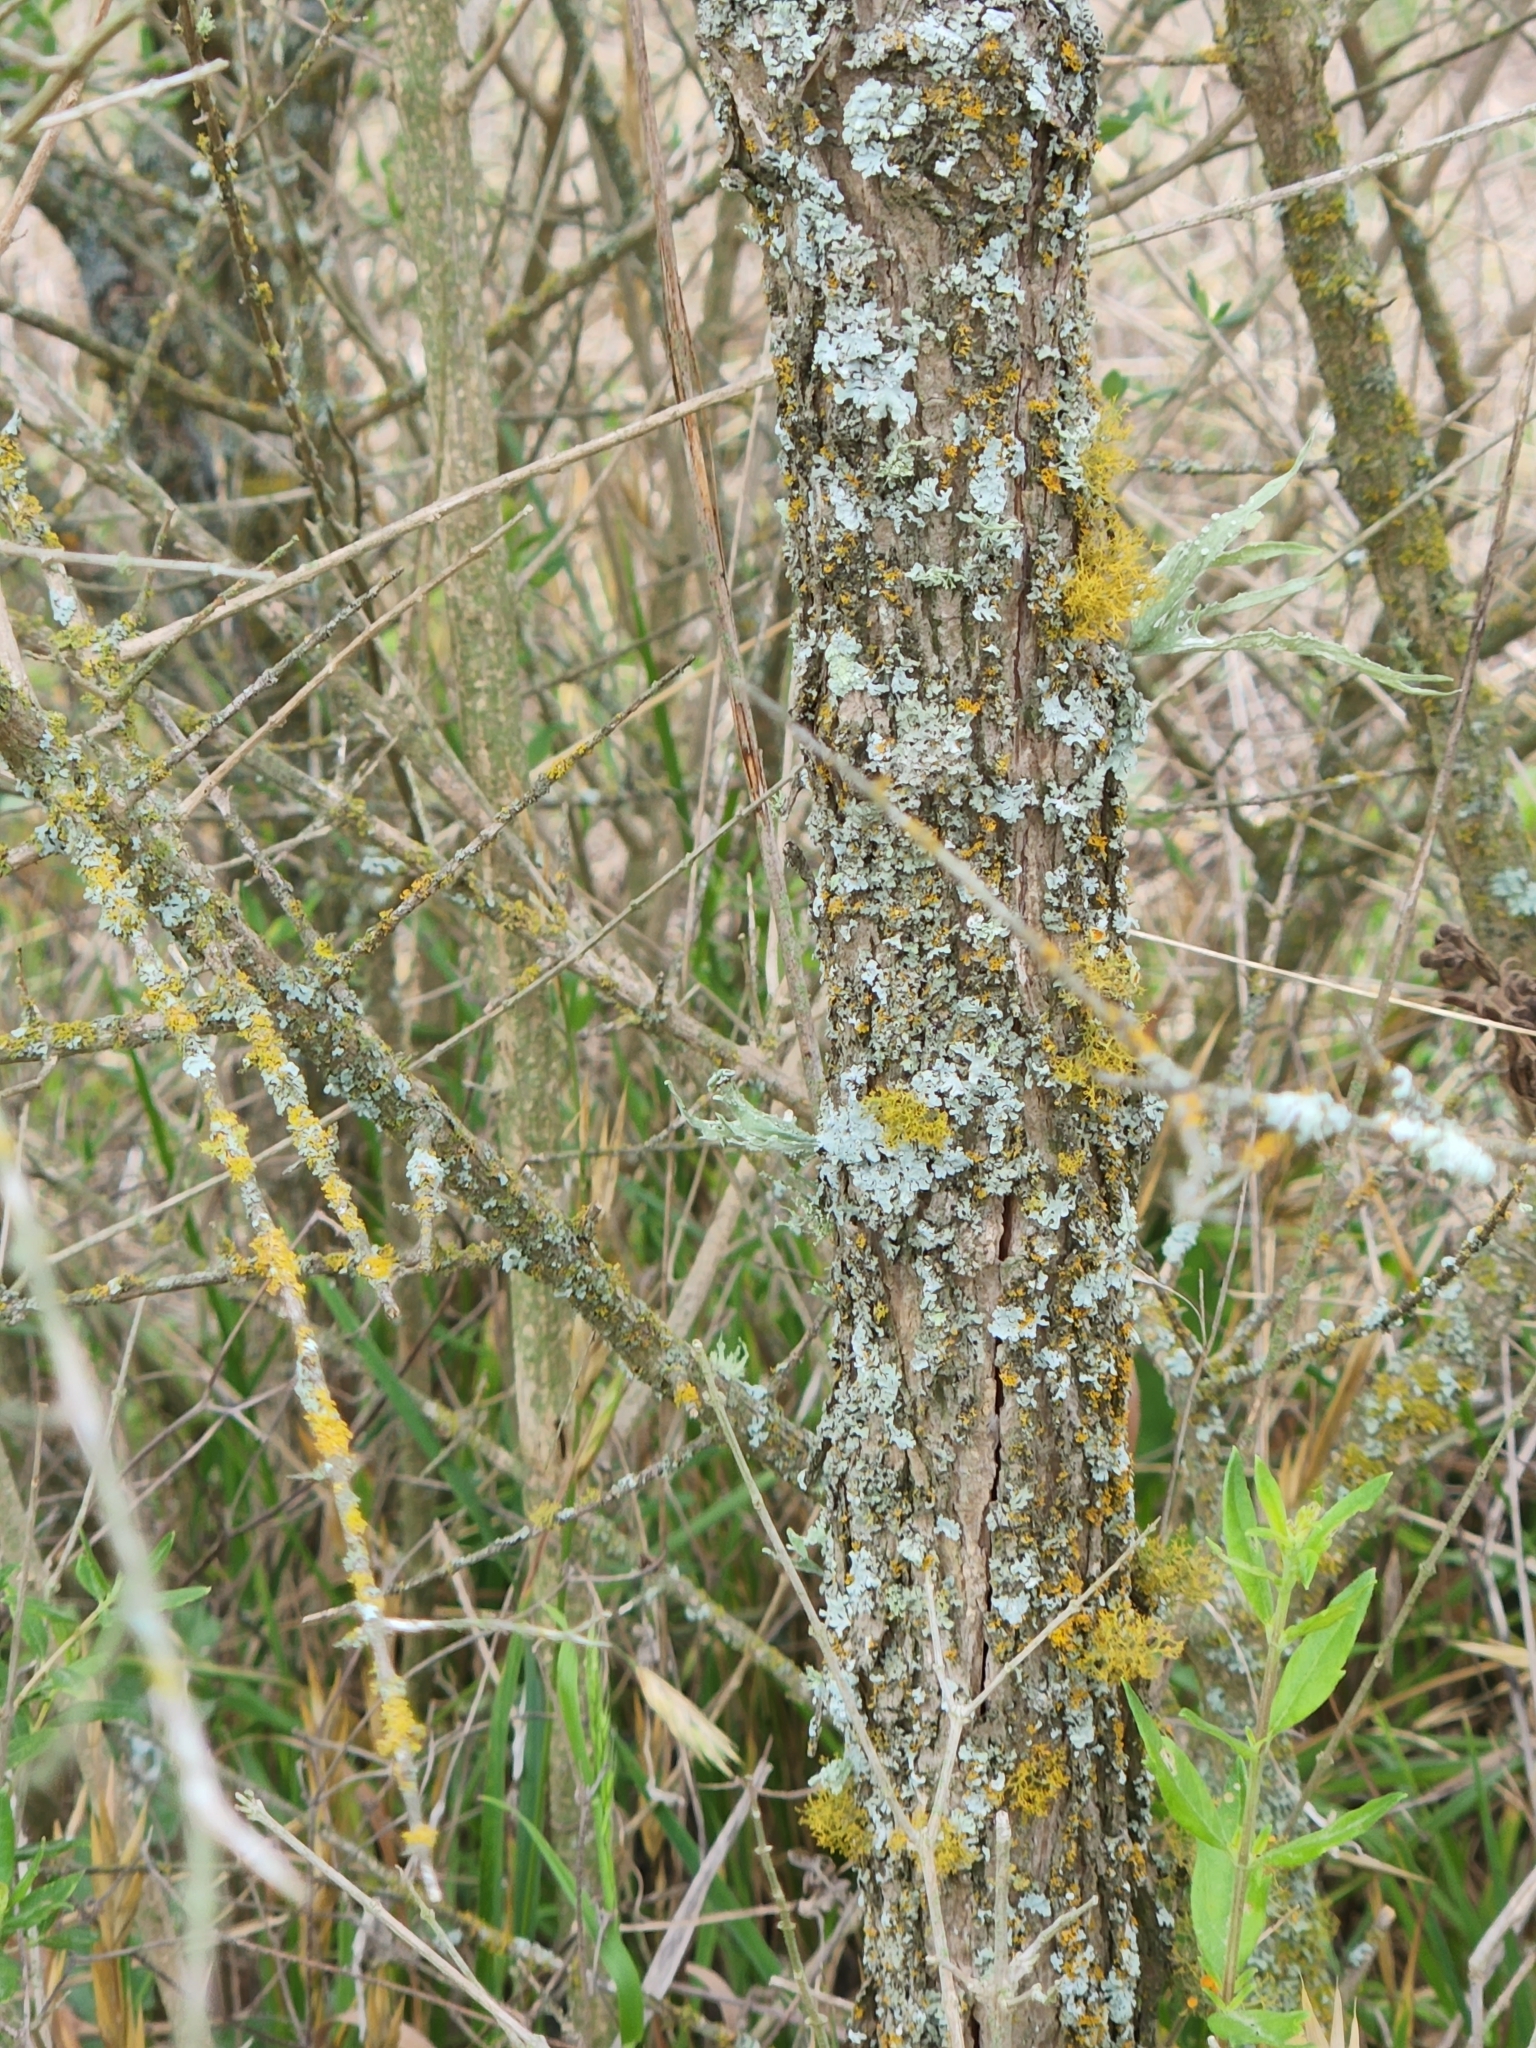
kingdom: Plantae
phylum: Tracheophyta
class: Magnoliopsida
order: Lamiales
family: Verbenaceae
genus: Aloysia
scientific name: Aloysia gratissima
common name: Common bee-brush
